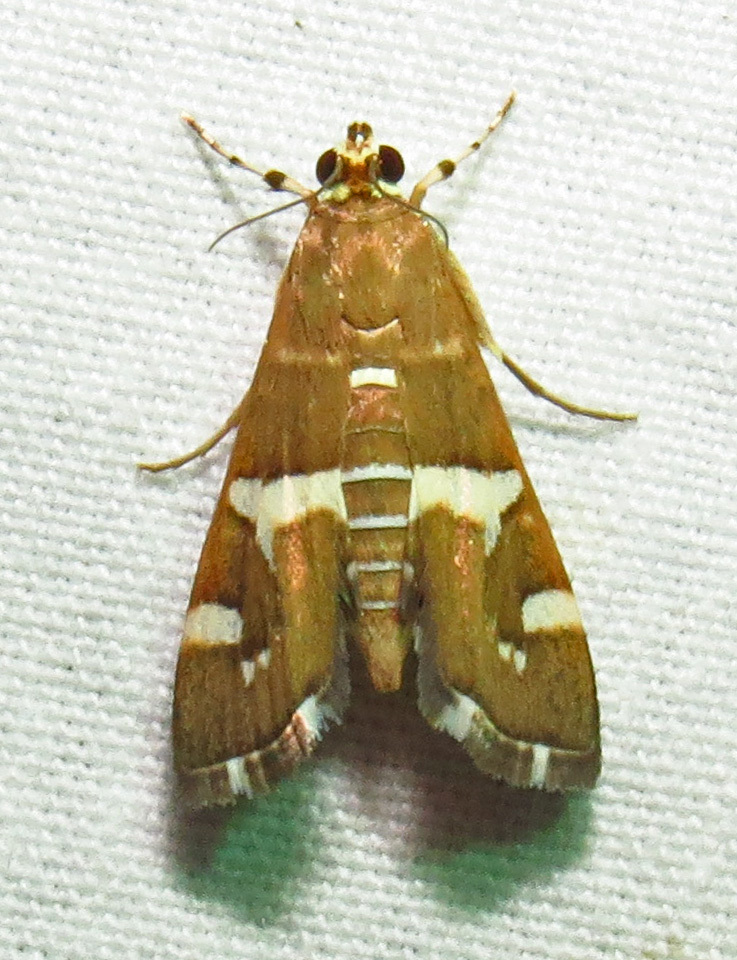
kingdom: Animalia
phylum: Arthropoda
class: Insecta
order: Lepidoptera
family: Crambidae
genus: Spoladea
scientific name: Spoladea recurvalis
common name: Beet webworm moth
